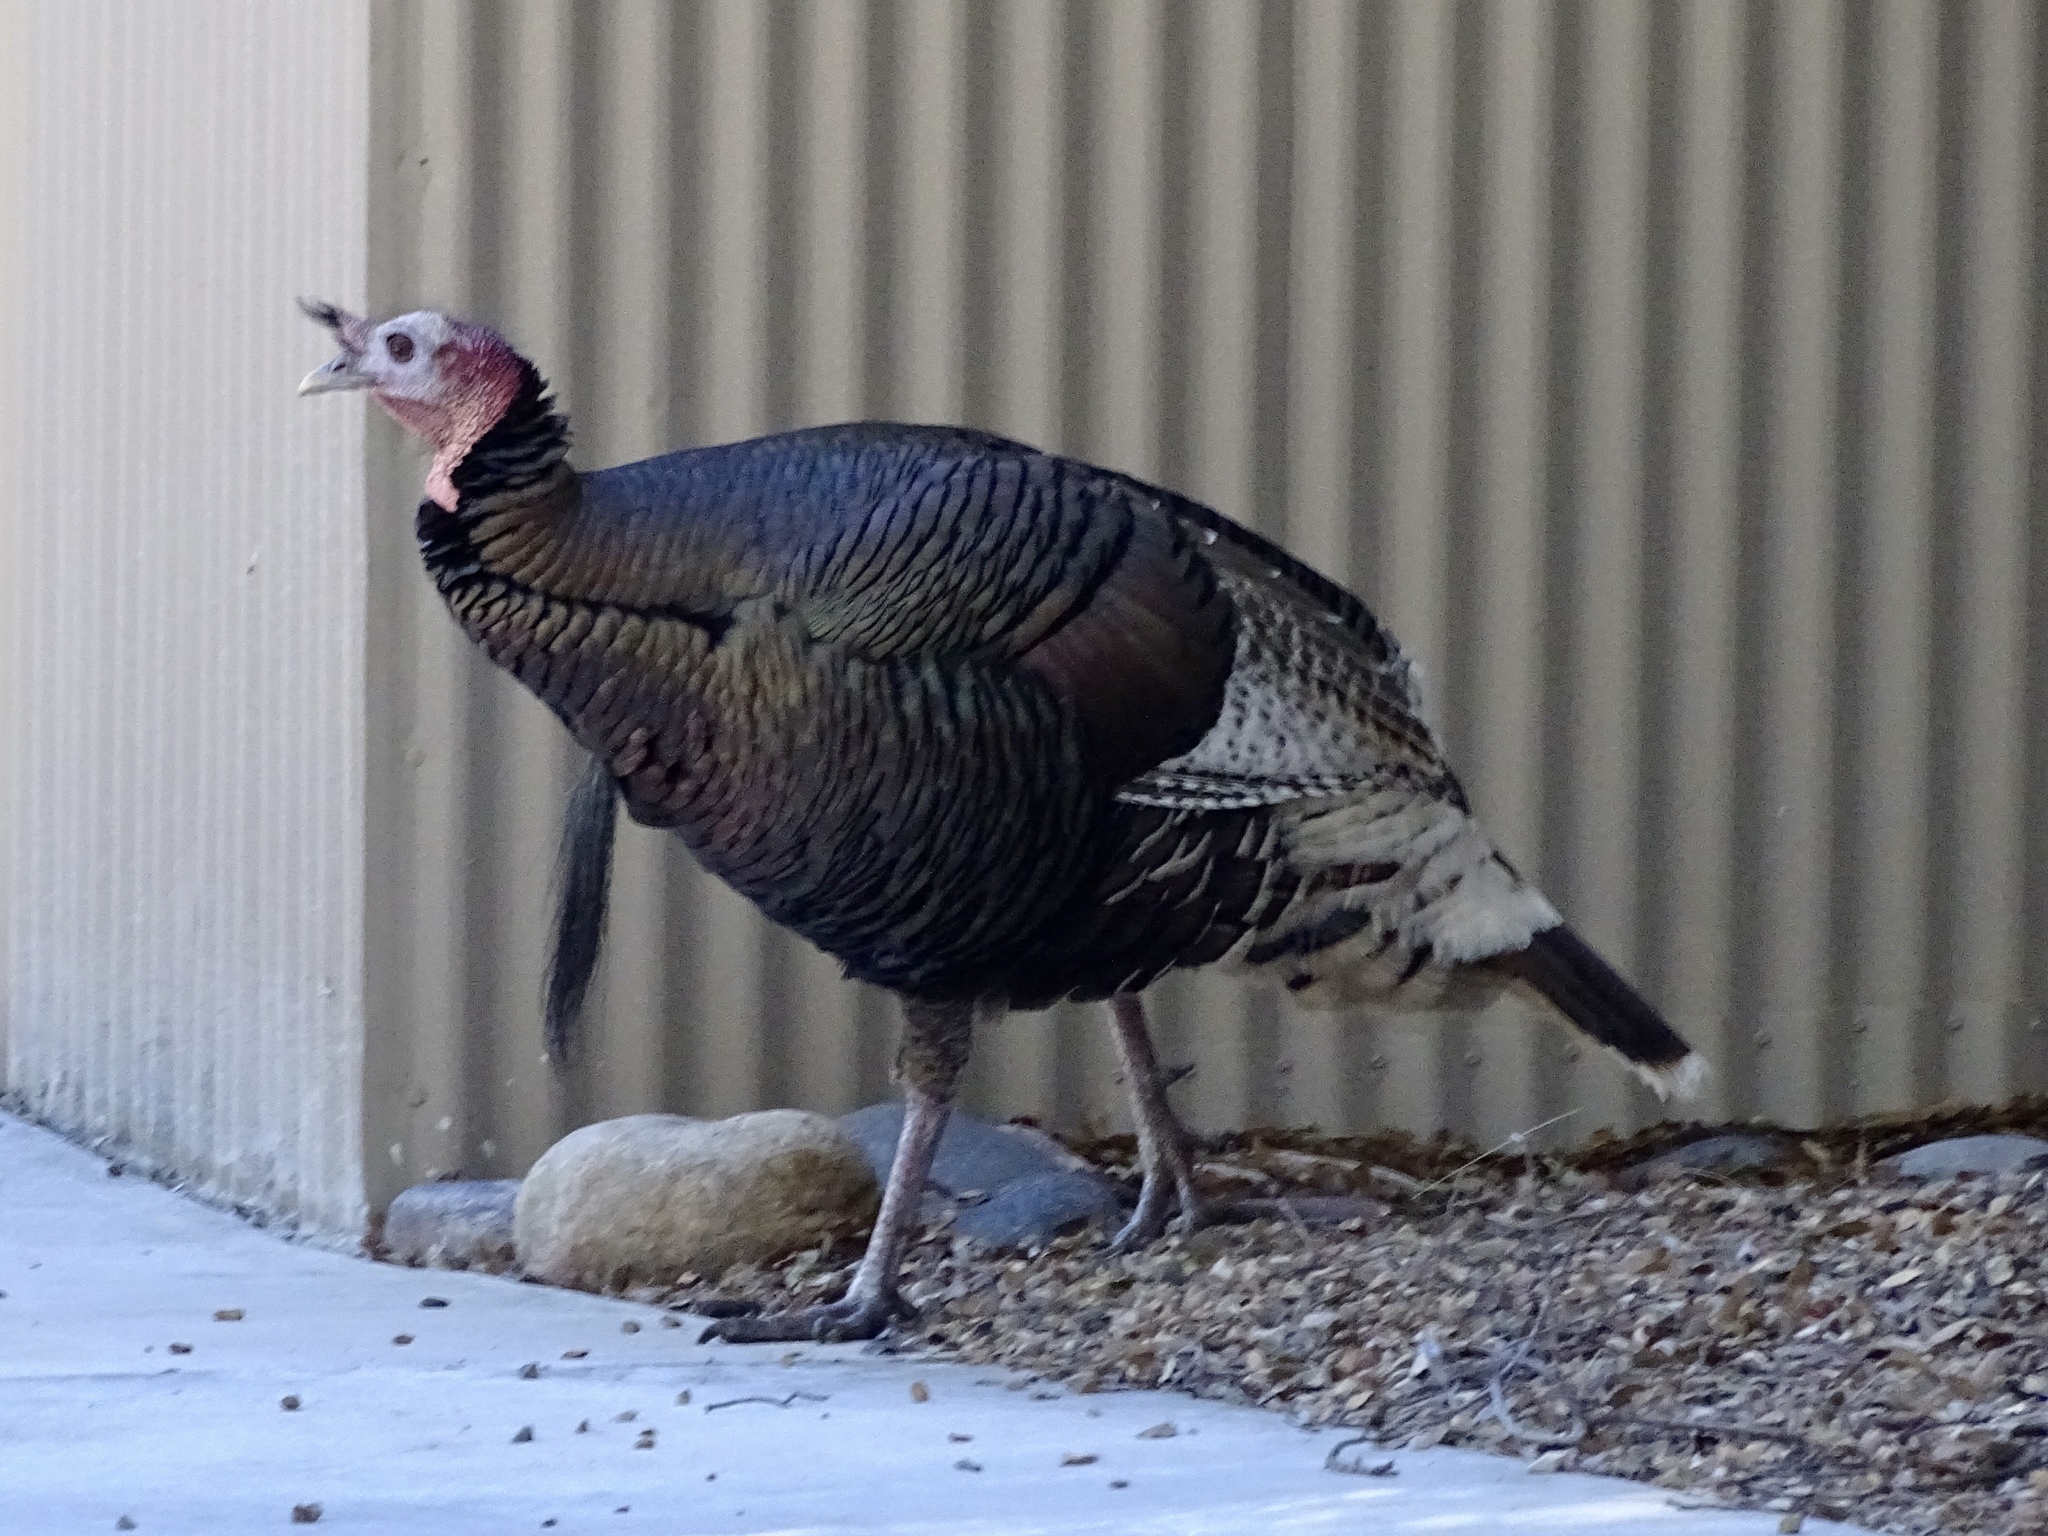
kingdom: Animalia
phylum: Chordata
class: Aves
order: Galliformes
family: Phasianidae
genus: Meleagris
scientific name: Meleagris gallopavo
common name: Wild turkey
